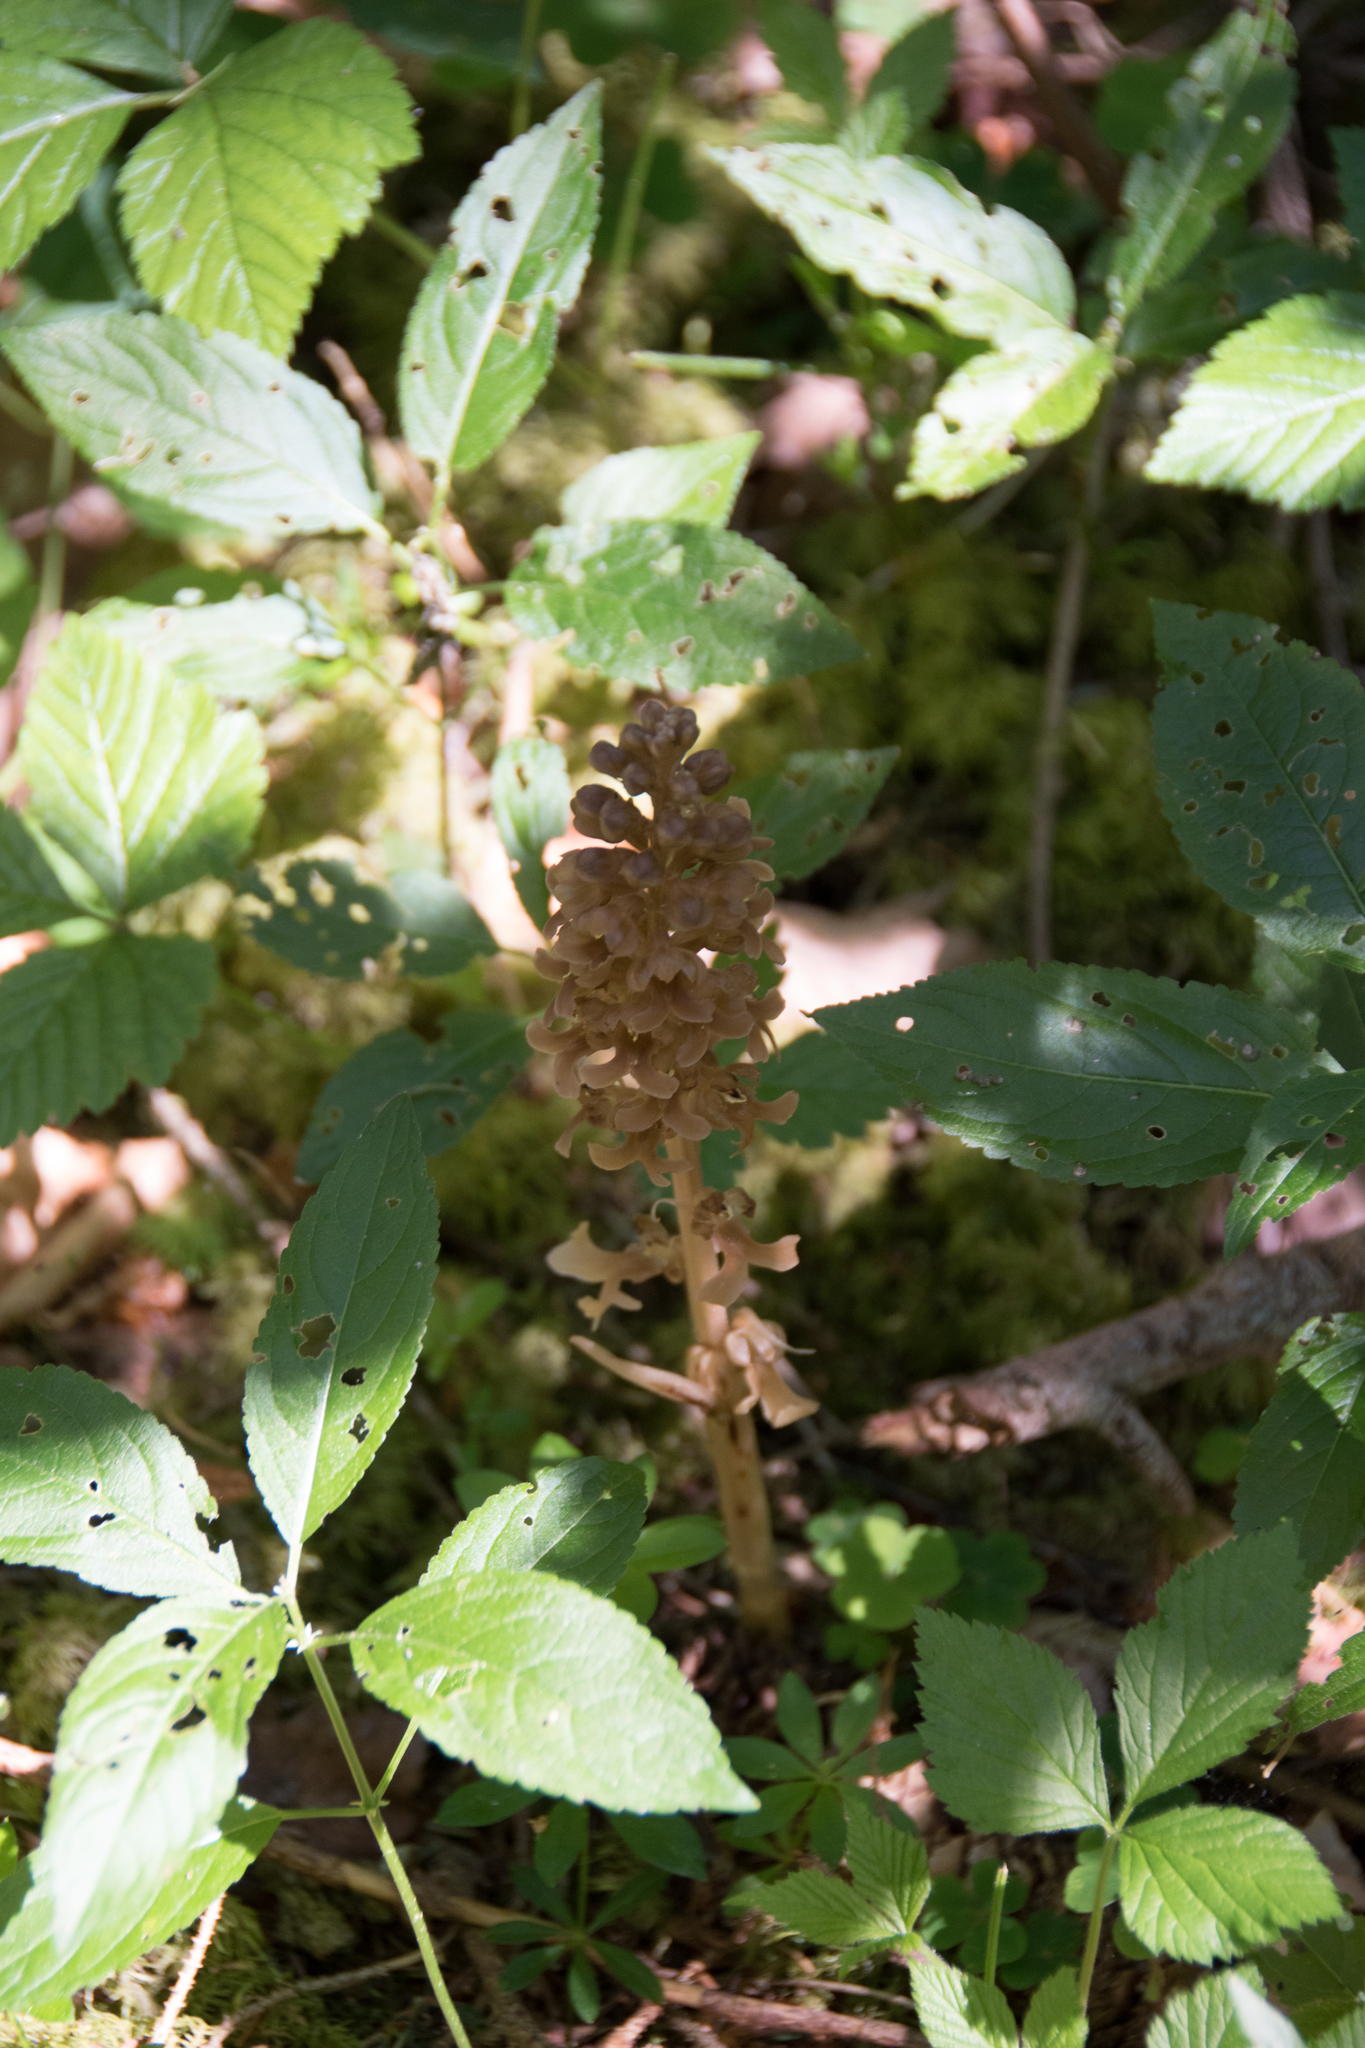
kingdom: Plantae
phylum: Tracheophyta
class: Liliopsida
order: Asparagales
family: Orchidaceae
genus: Neottia
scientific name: Neottia nidus-avis
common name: Bird's-nest orchid
